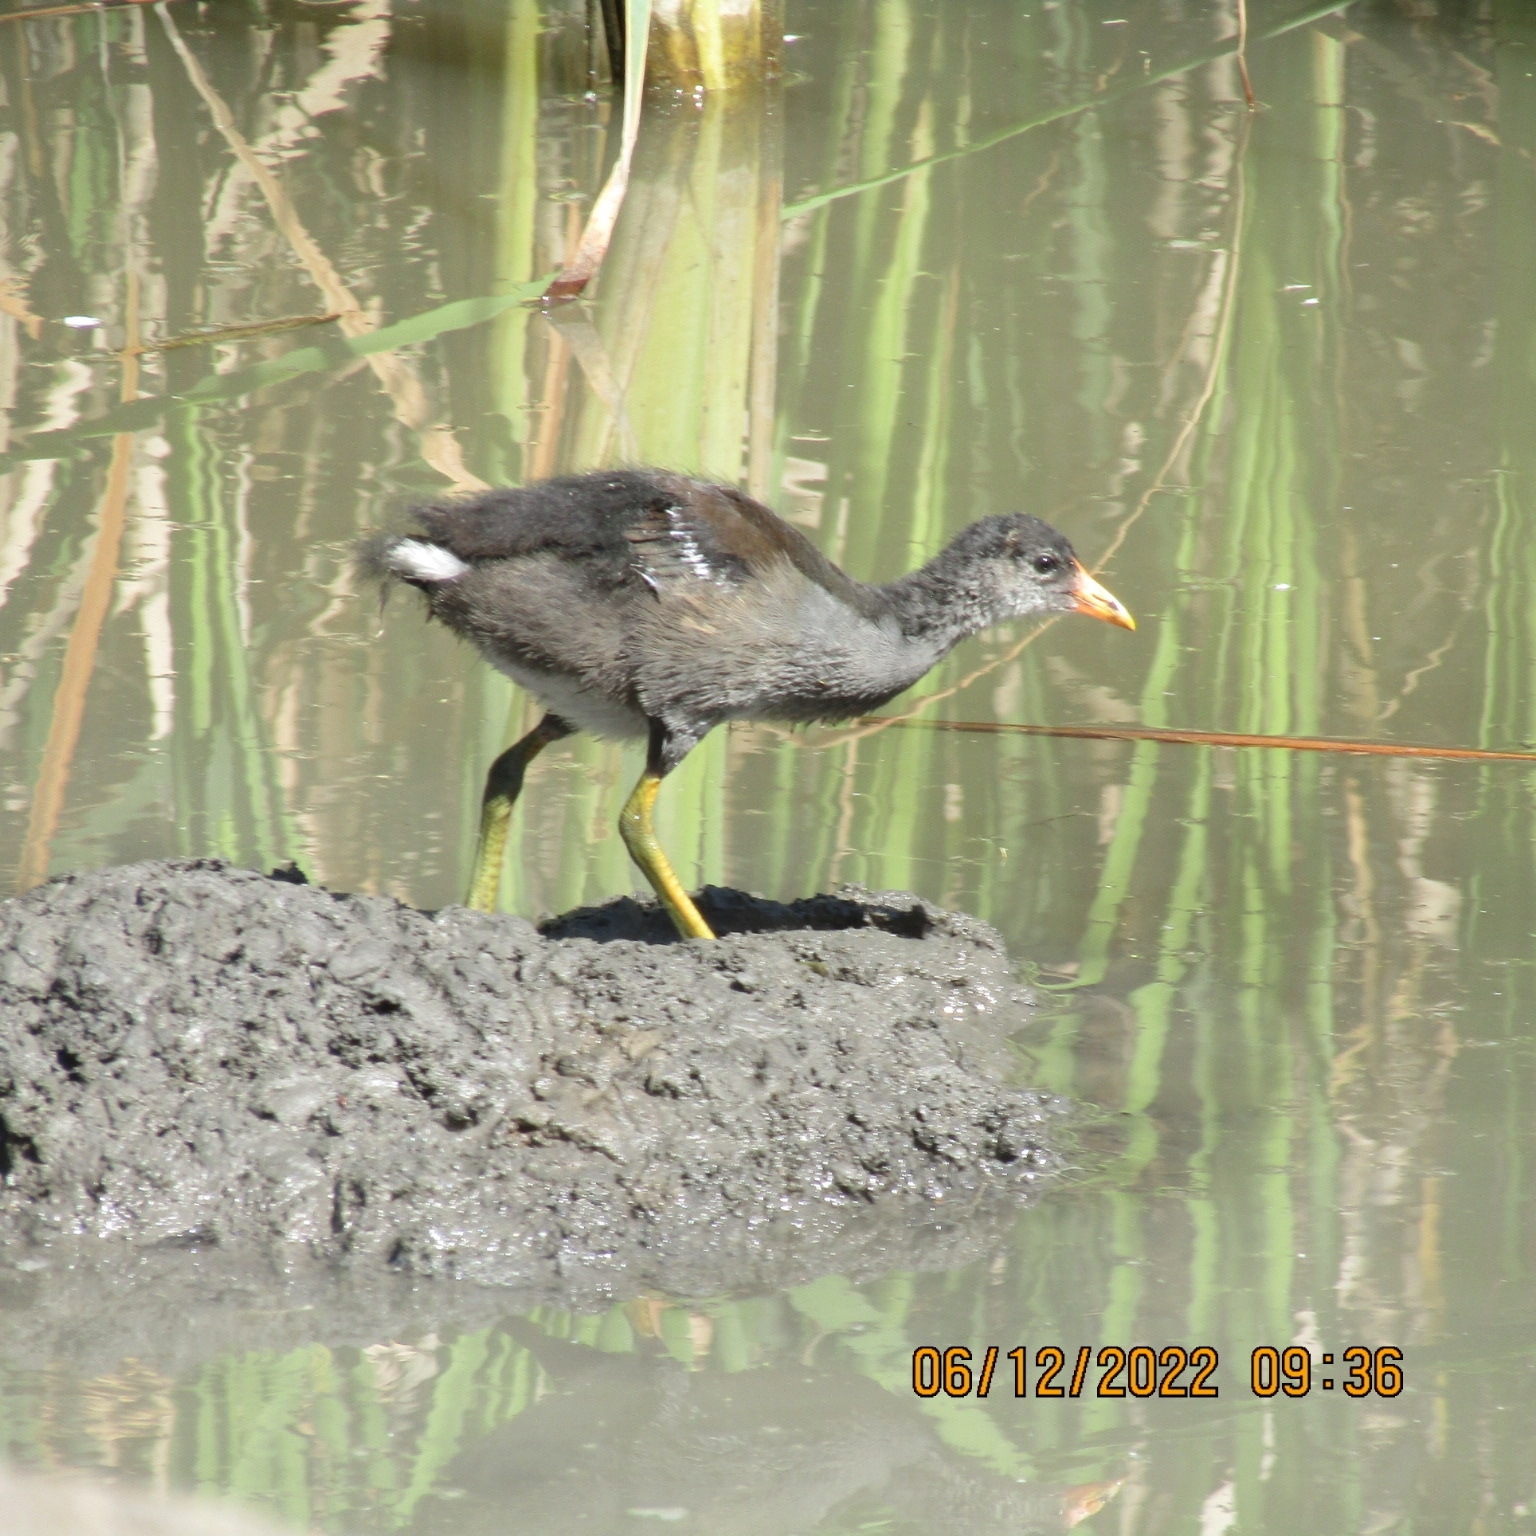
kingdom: Animalia
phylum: Chordata
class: Aves
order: Gruiformes
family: Rallidae
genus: Gallinula
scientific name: Gallinula chloropus
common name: Common moorhen
